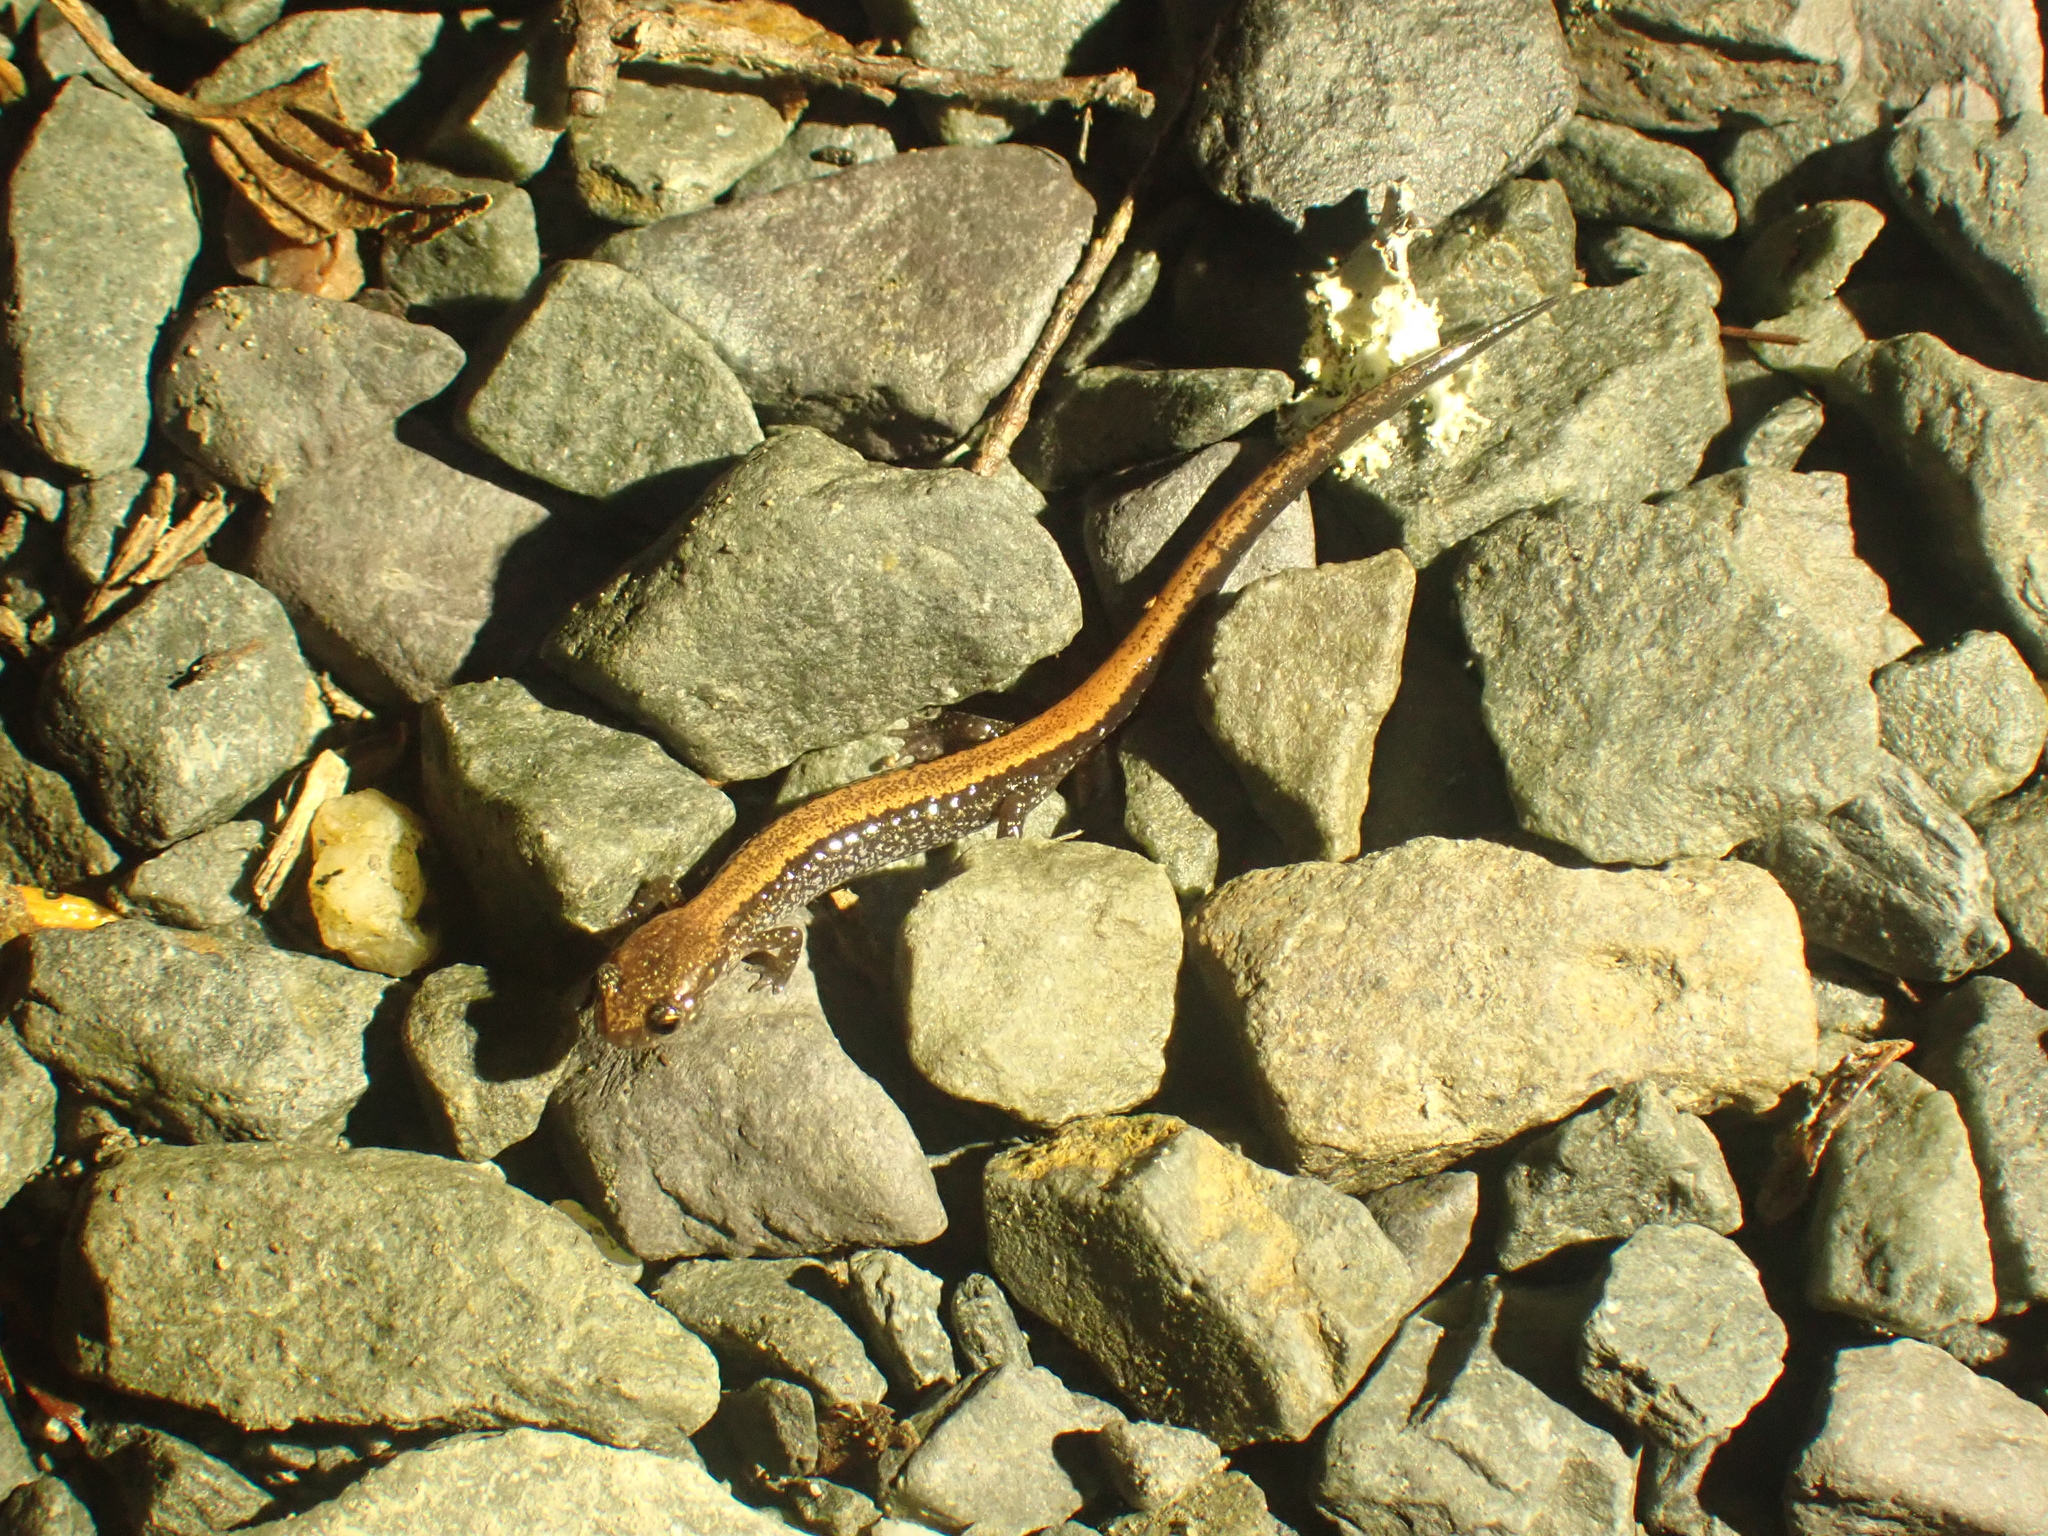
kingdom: Animalia
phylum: Chordata
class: Amphibia
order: Caudata
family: Plethodontidae
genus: Plethodon
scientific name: Plethodon cinereus
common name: Redback salamander
